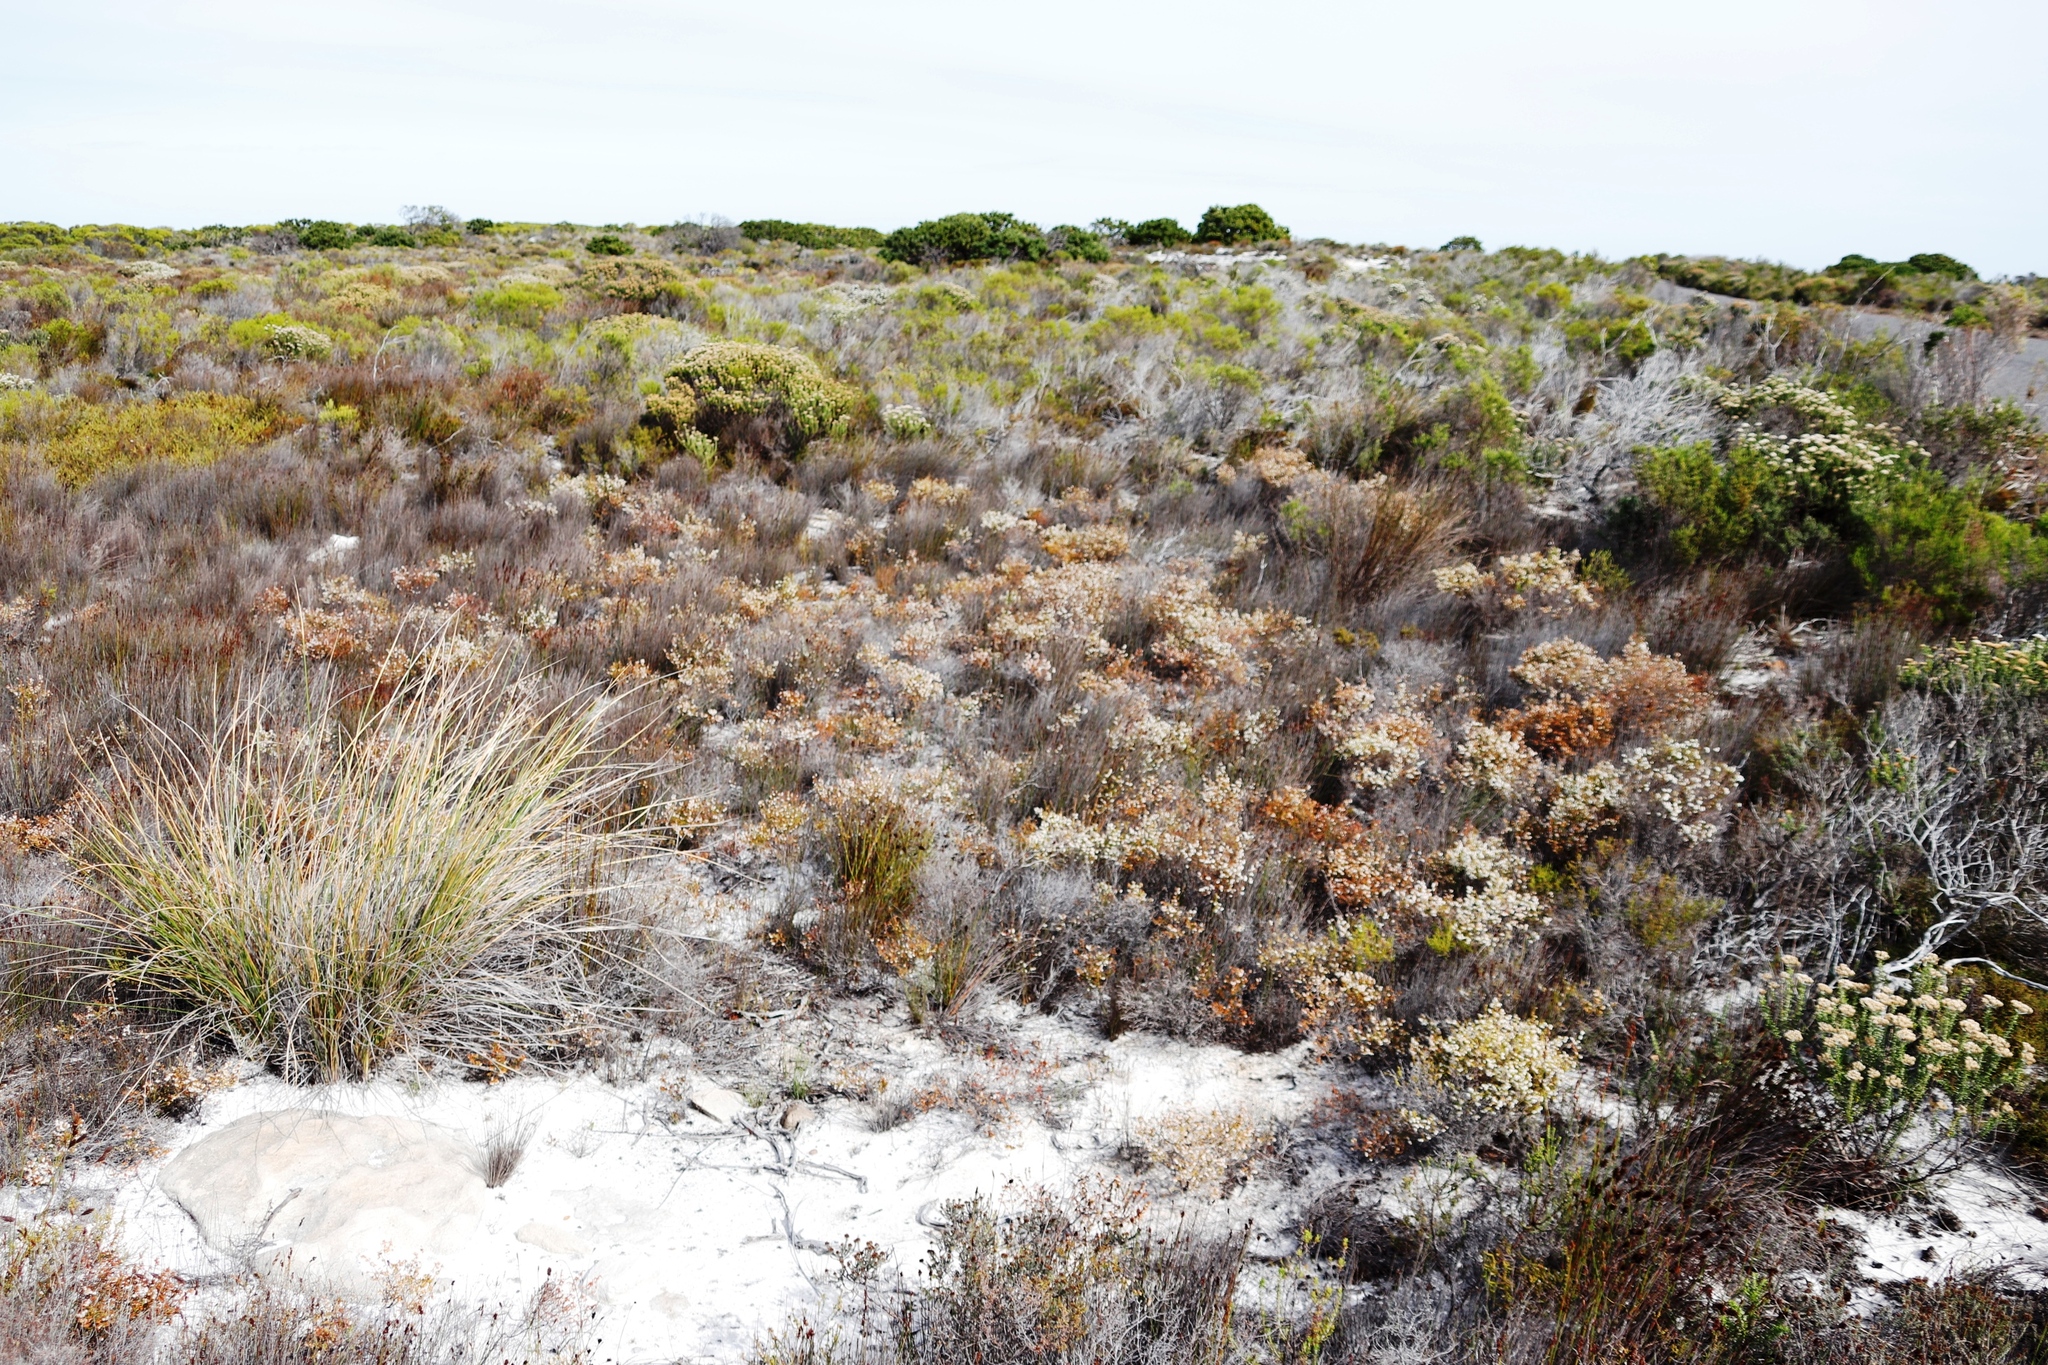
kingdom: Plantae
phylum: Tracheophyta
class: Magnoliopsida
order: Ericales
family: Ericaceae
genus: Erica
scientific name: Erica subdivaricata
